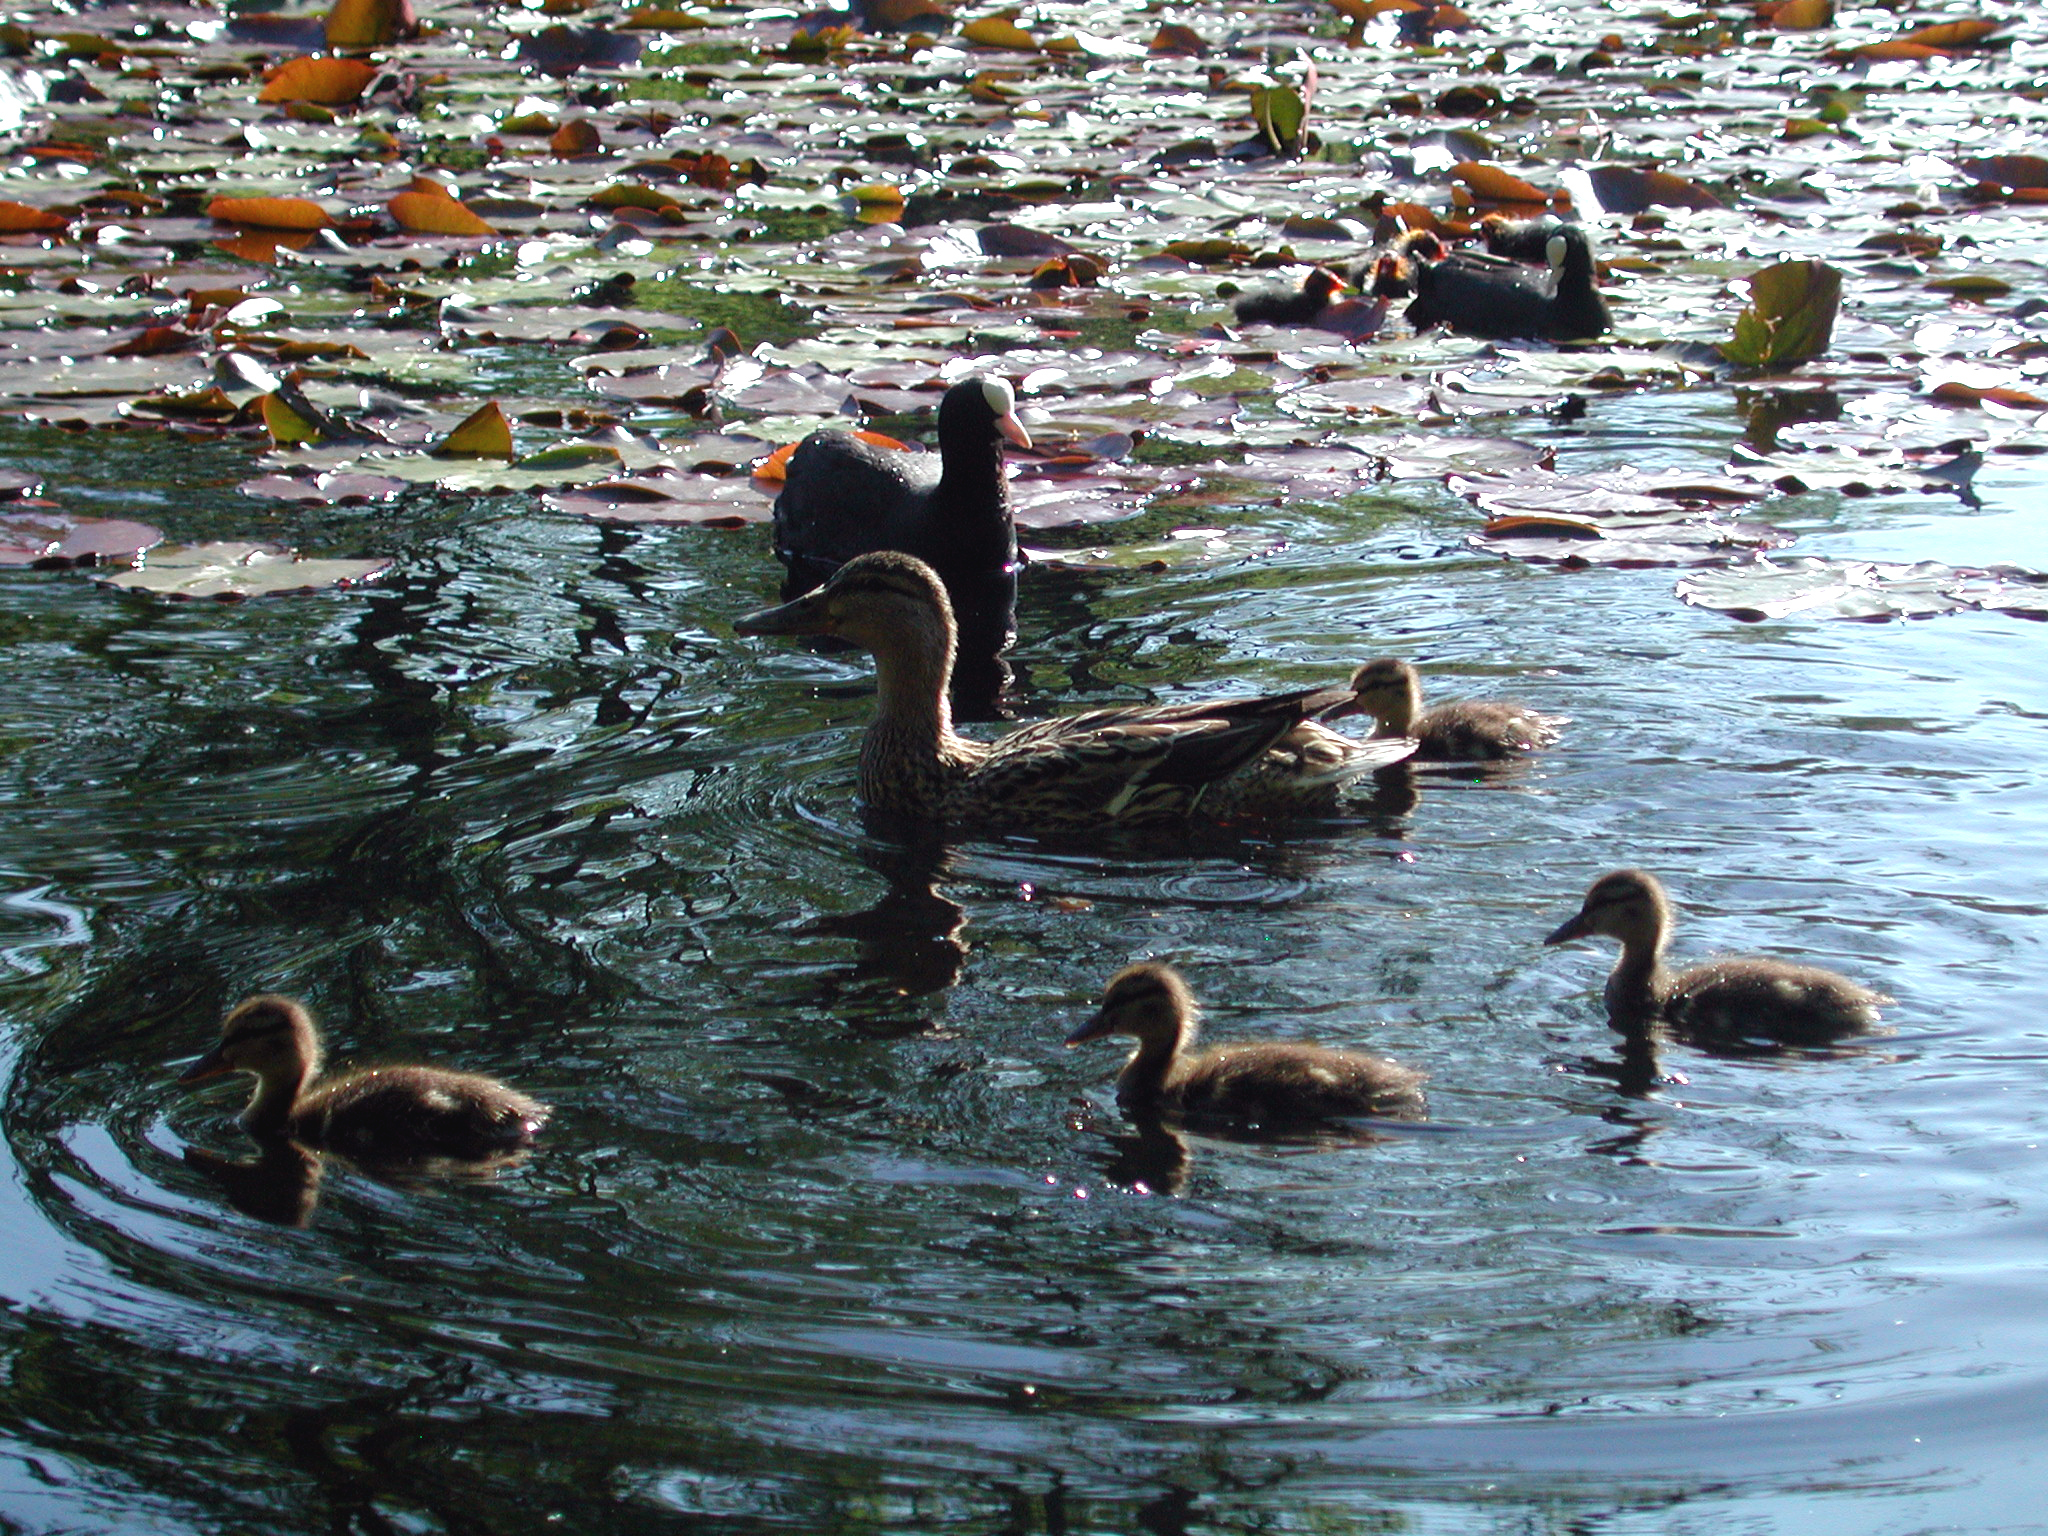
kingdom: Animalia
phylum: Chordata
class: Aves
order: Anseriformes
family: Anatidae
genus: Anas
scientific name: Anas platyrhynchos
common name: Mallard
